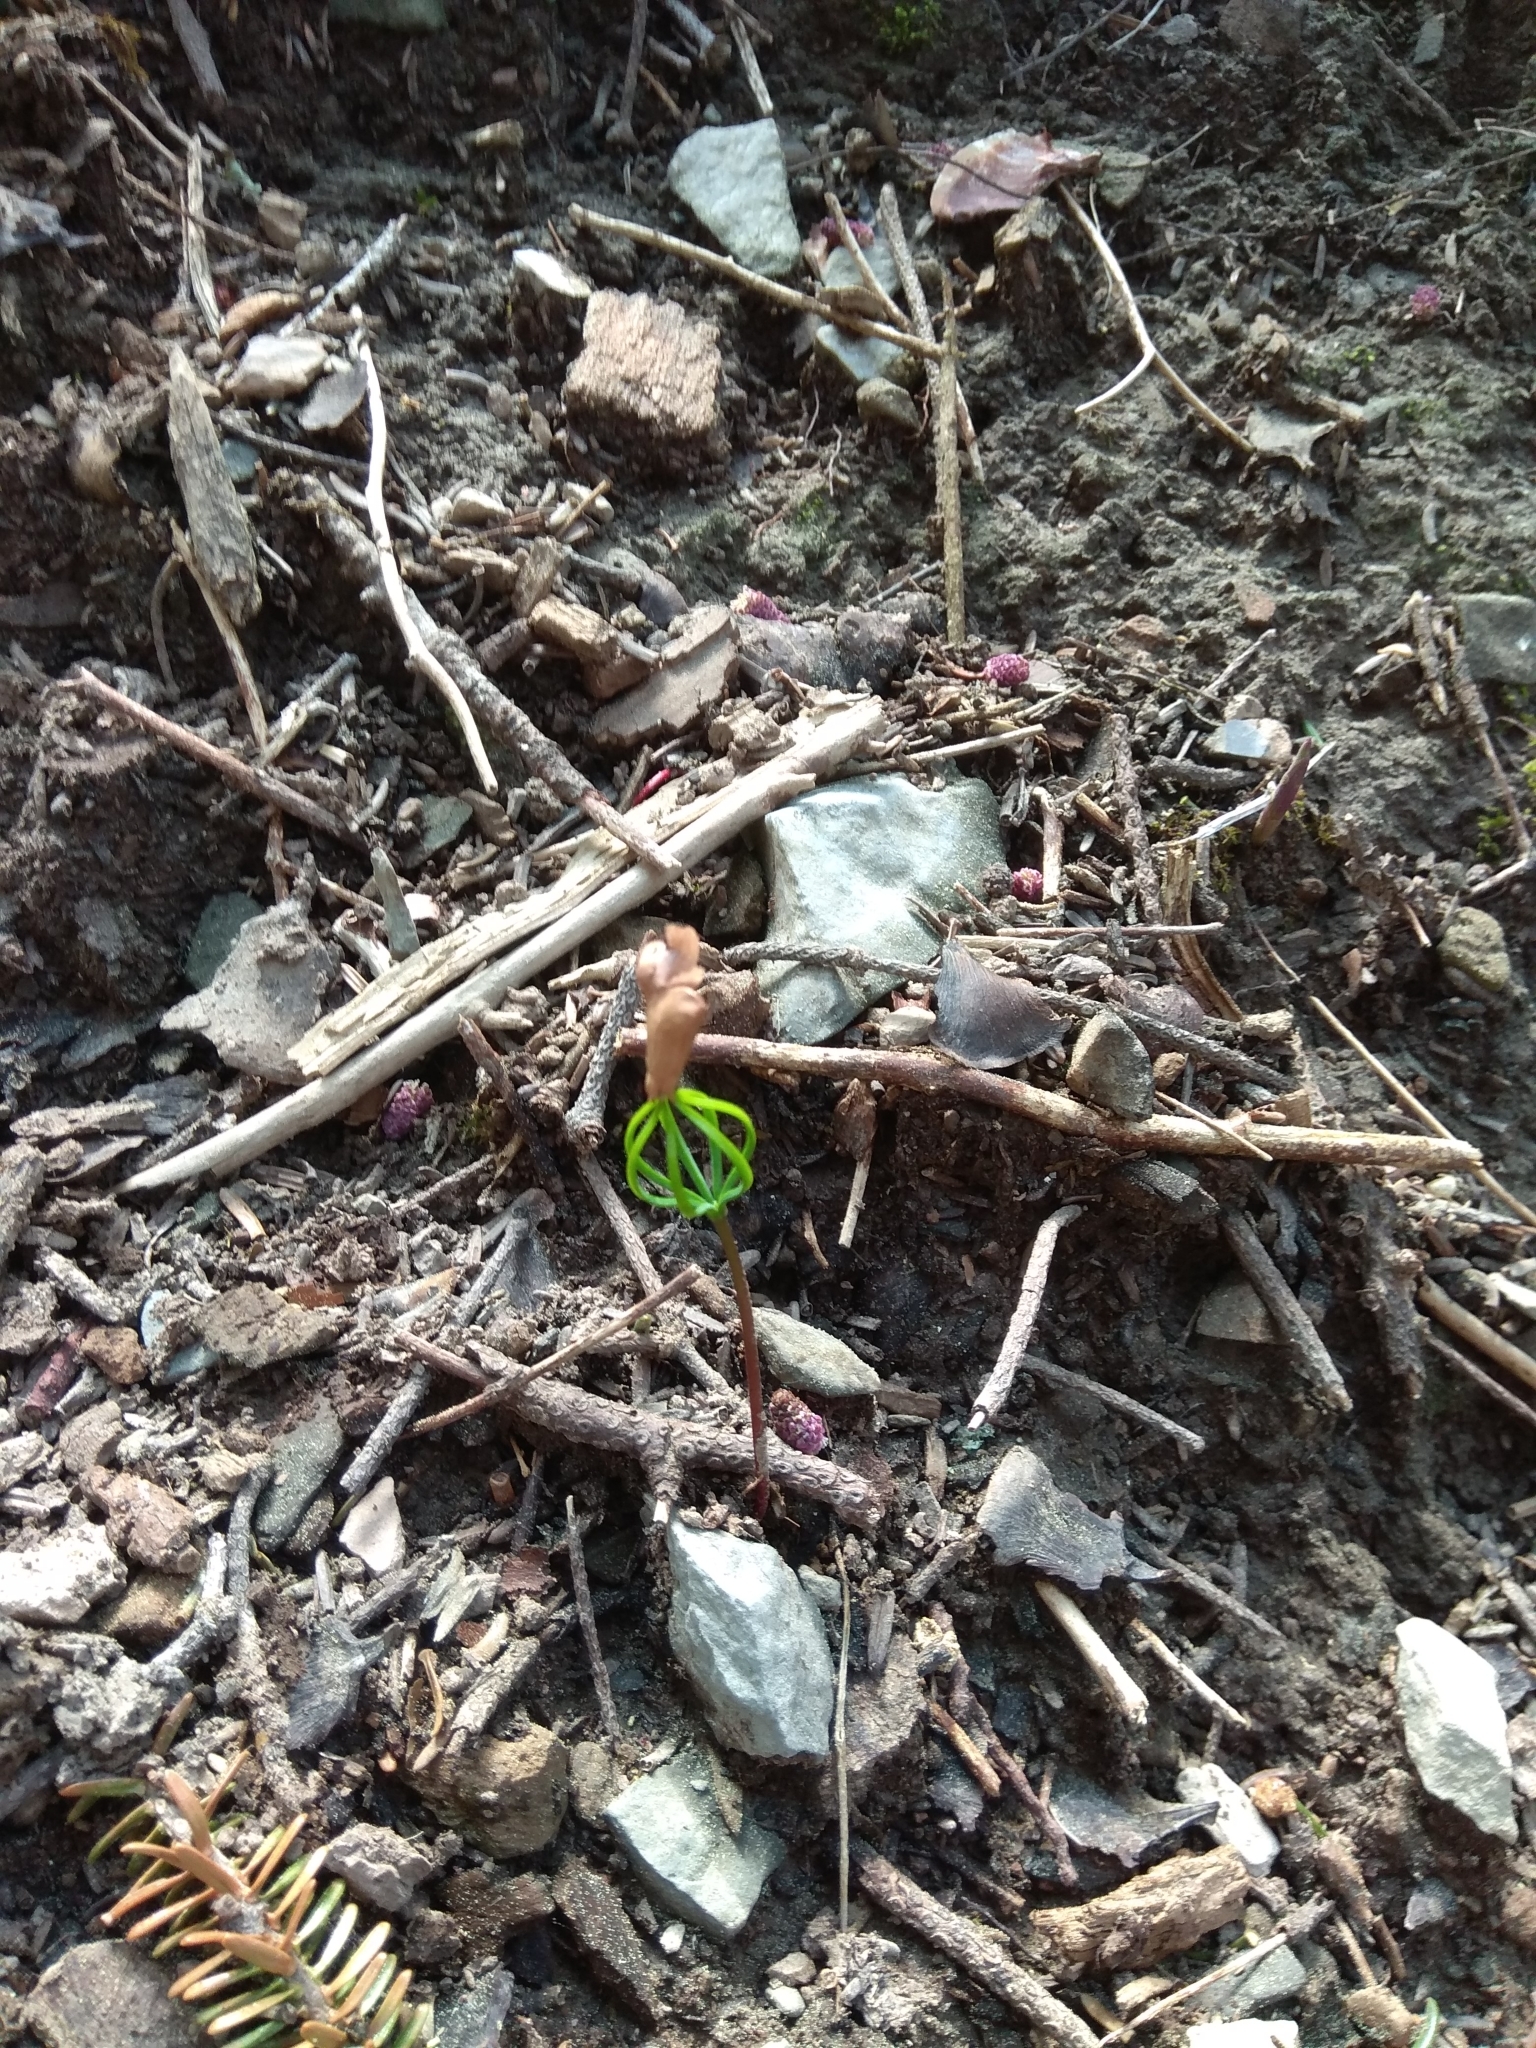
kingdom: Plantae
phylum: Tracheophyta
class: Pinopsida
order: Pinales
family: Pinaceae
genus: Abies
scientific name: Abies pinsapo
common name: Spanish fir
